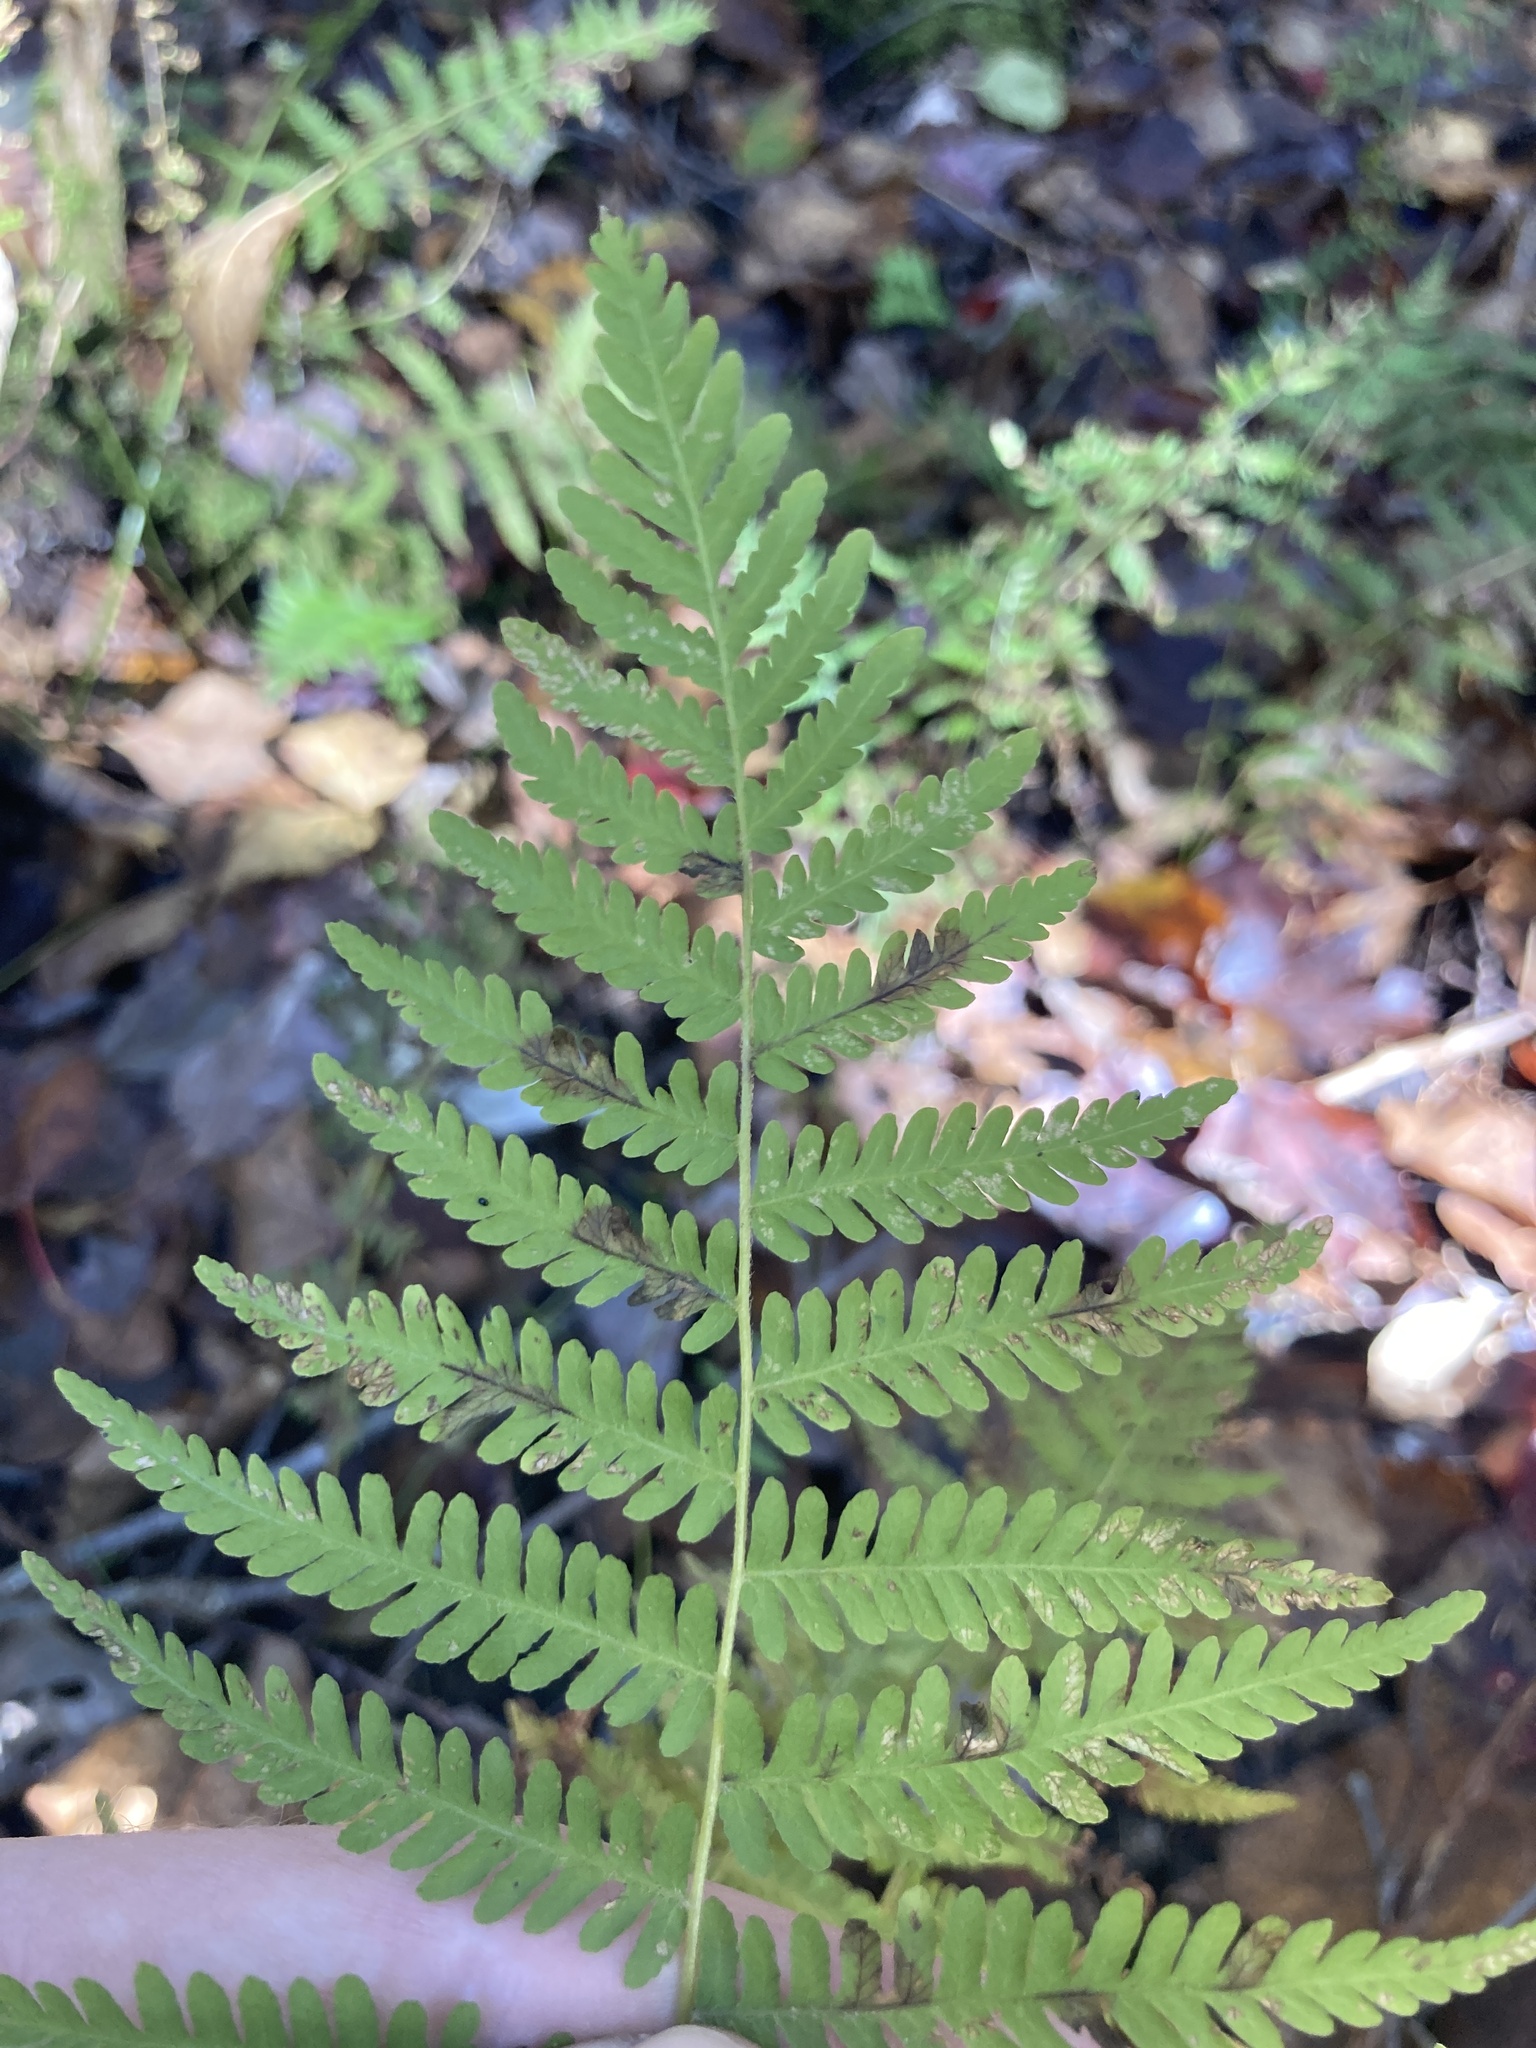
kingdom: Plantae
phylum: Tracheophyta
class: Polypodiopsida
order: Polypodiales
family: Thelypteridaceae
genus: Amauropelta
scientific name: Amauropelta noveboracensis
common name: New york fern
